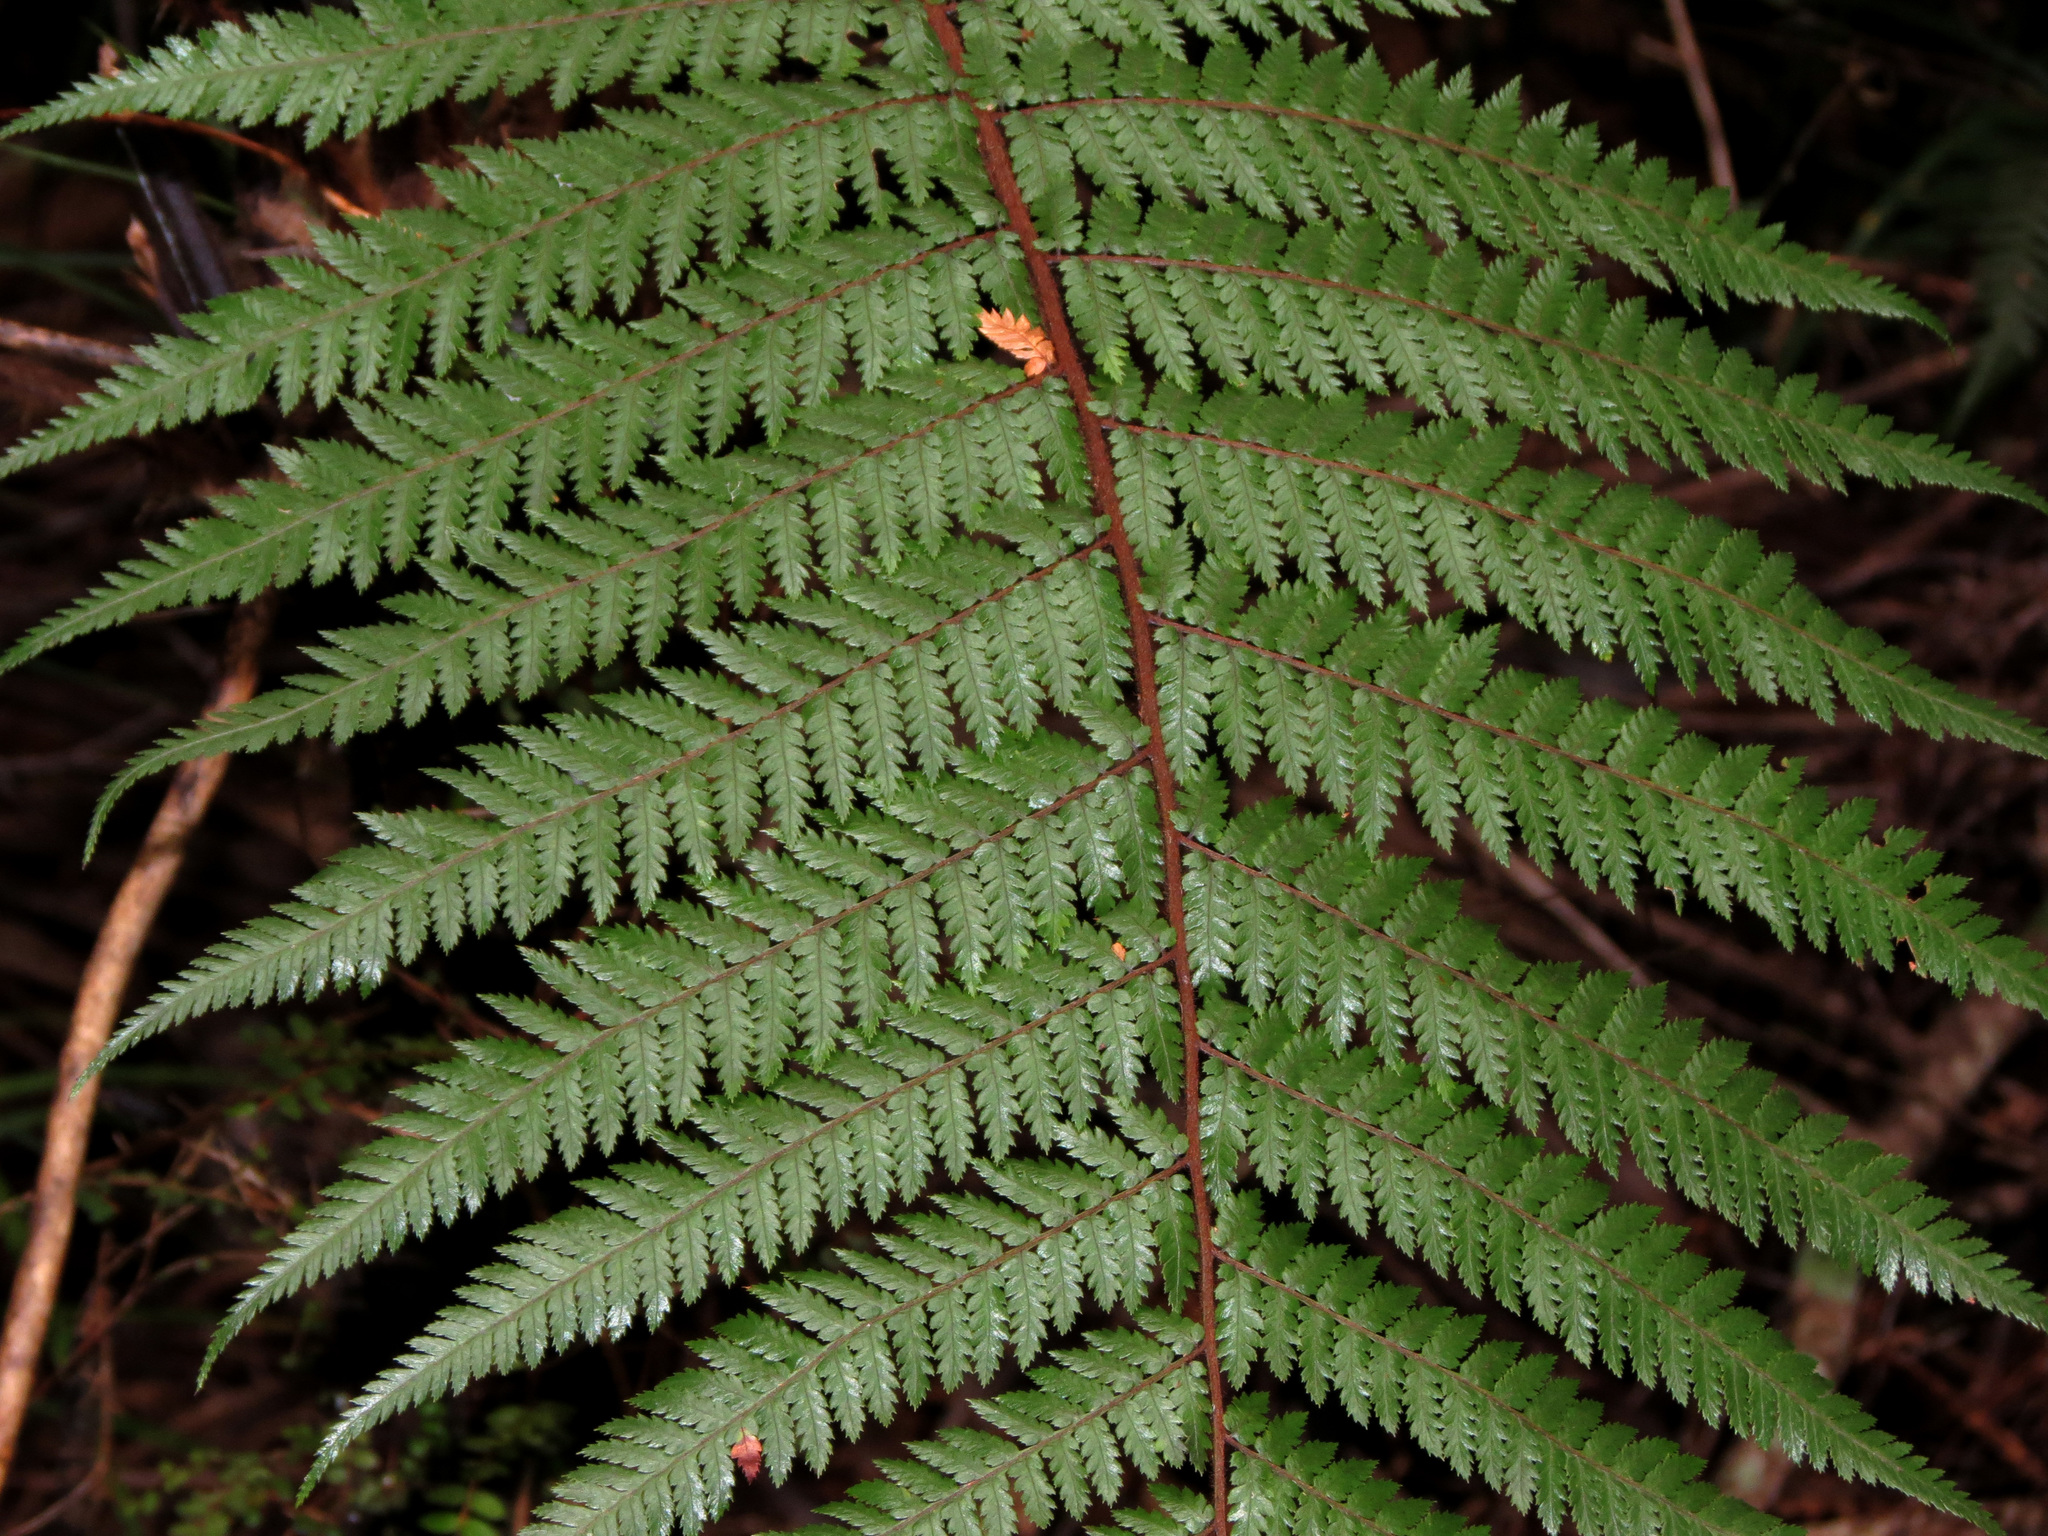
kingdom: Plantae
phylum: Tracheophyta
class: Polypodiopsida
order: Cyatheales
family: Dicksoniaceae
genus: Dicksonia
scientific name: Dicksonia squarrosa
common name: Hard treefern
